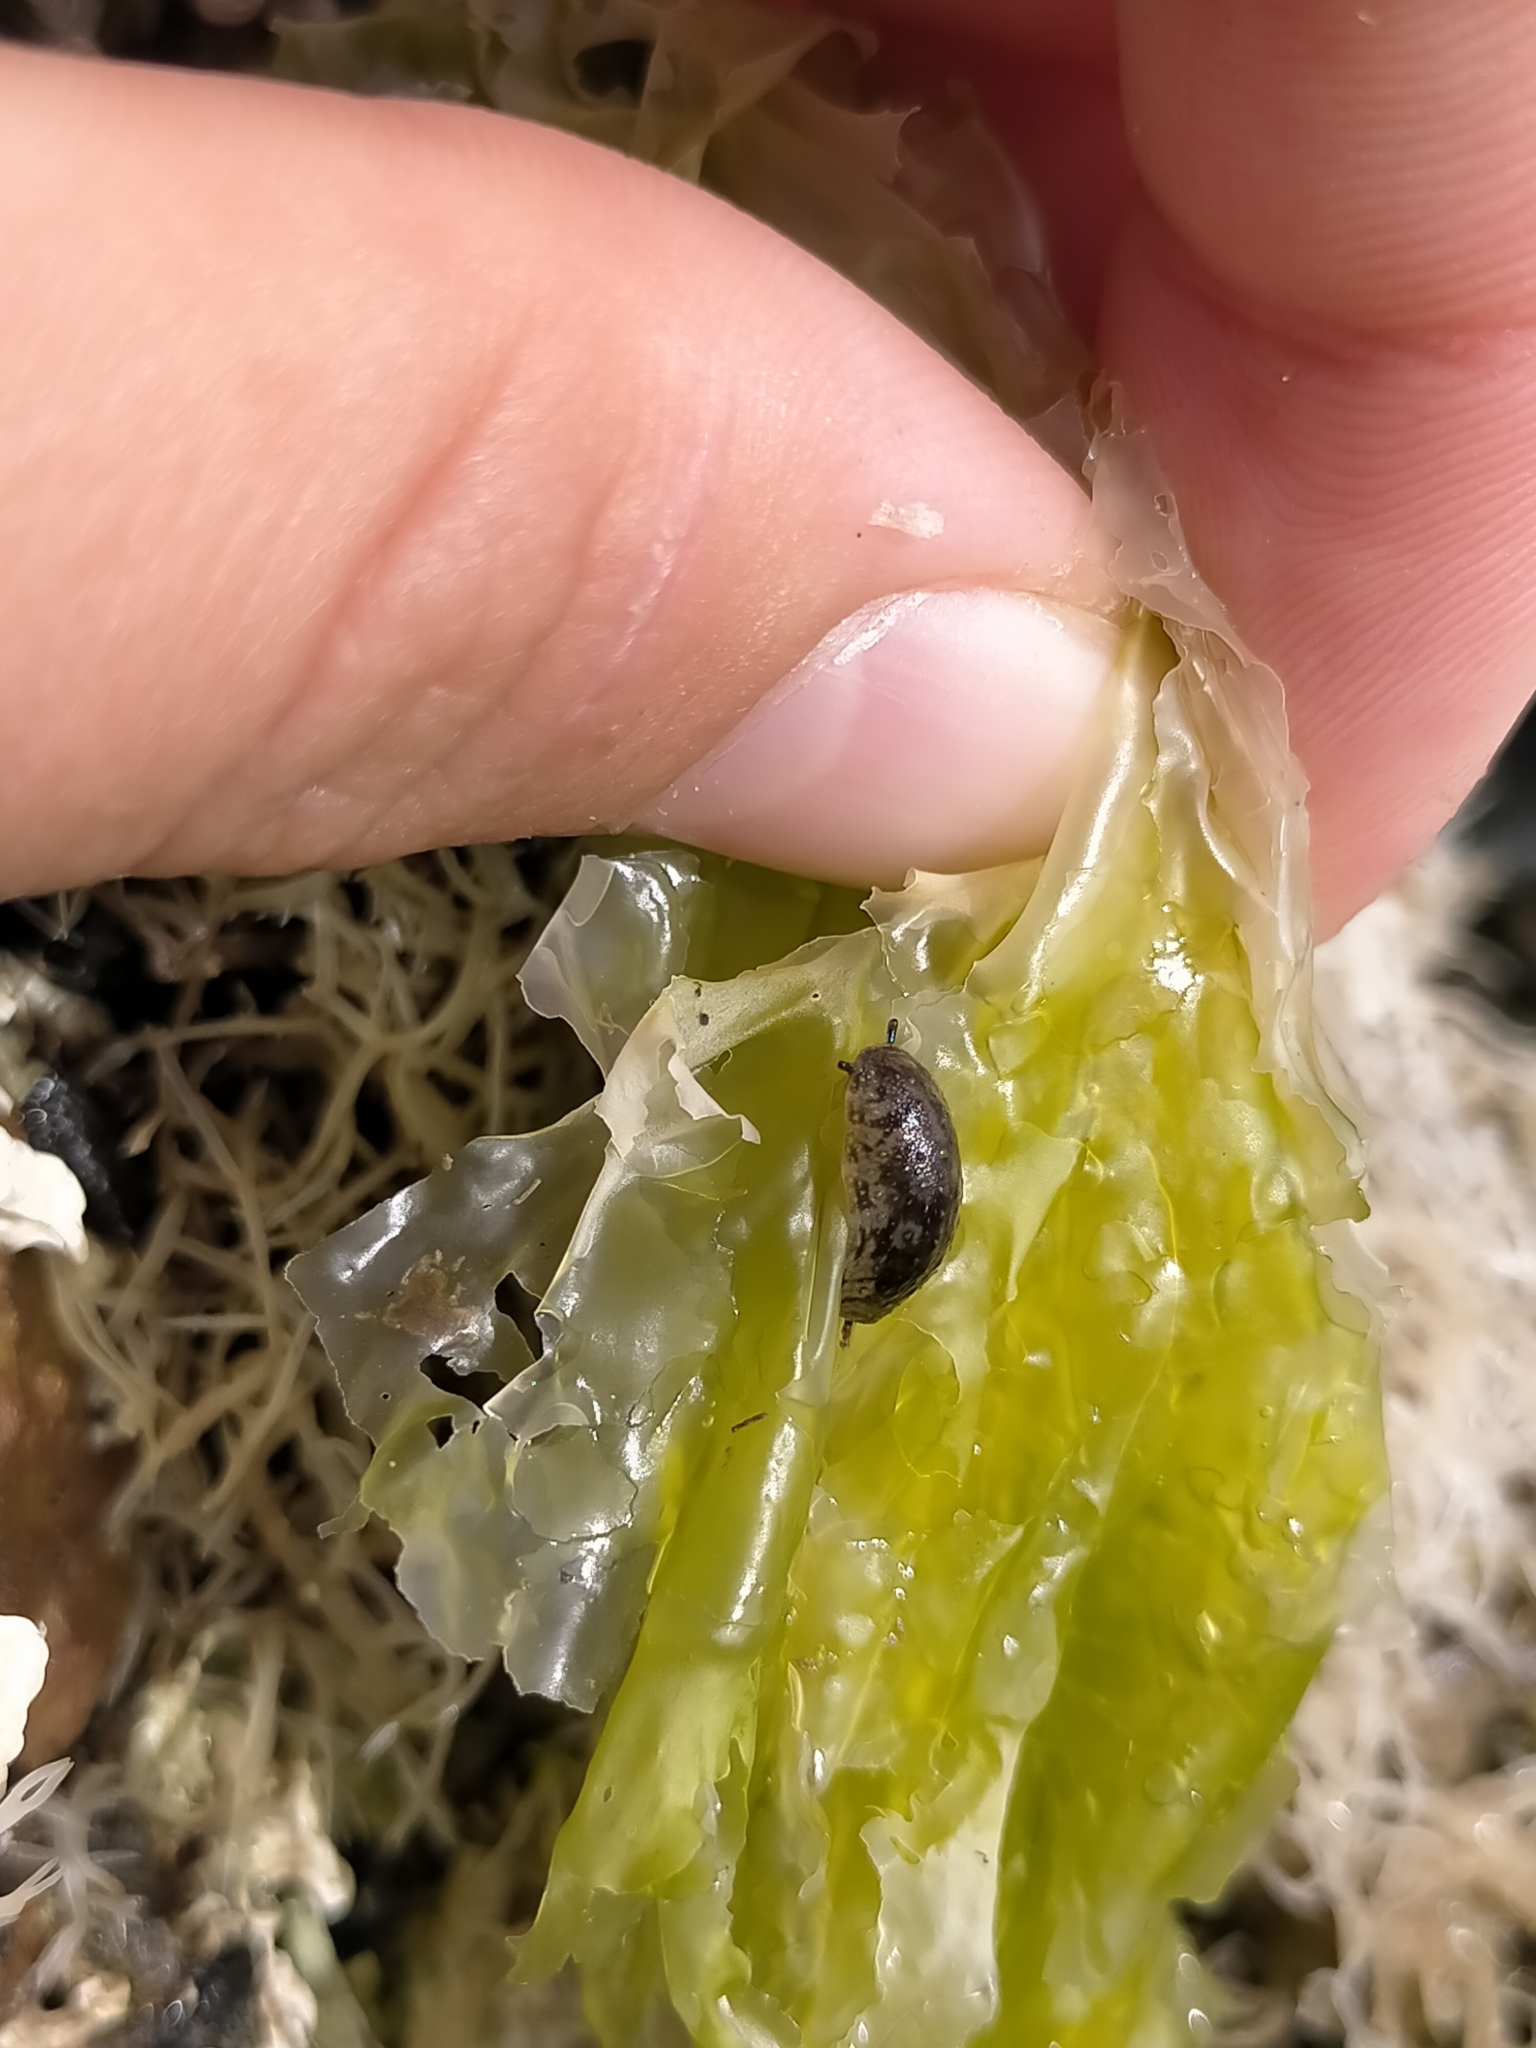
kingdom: Animalia
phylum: Mollusca
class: Gastropoda
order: Systellommatophora
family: Onchidiidae
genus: Onchidella
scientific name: Onchidella nigricans
